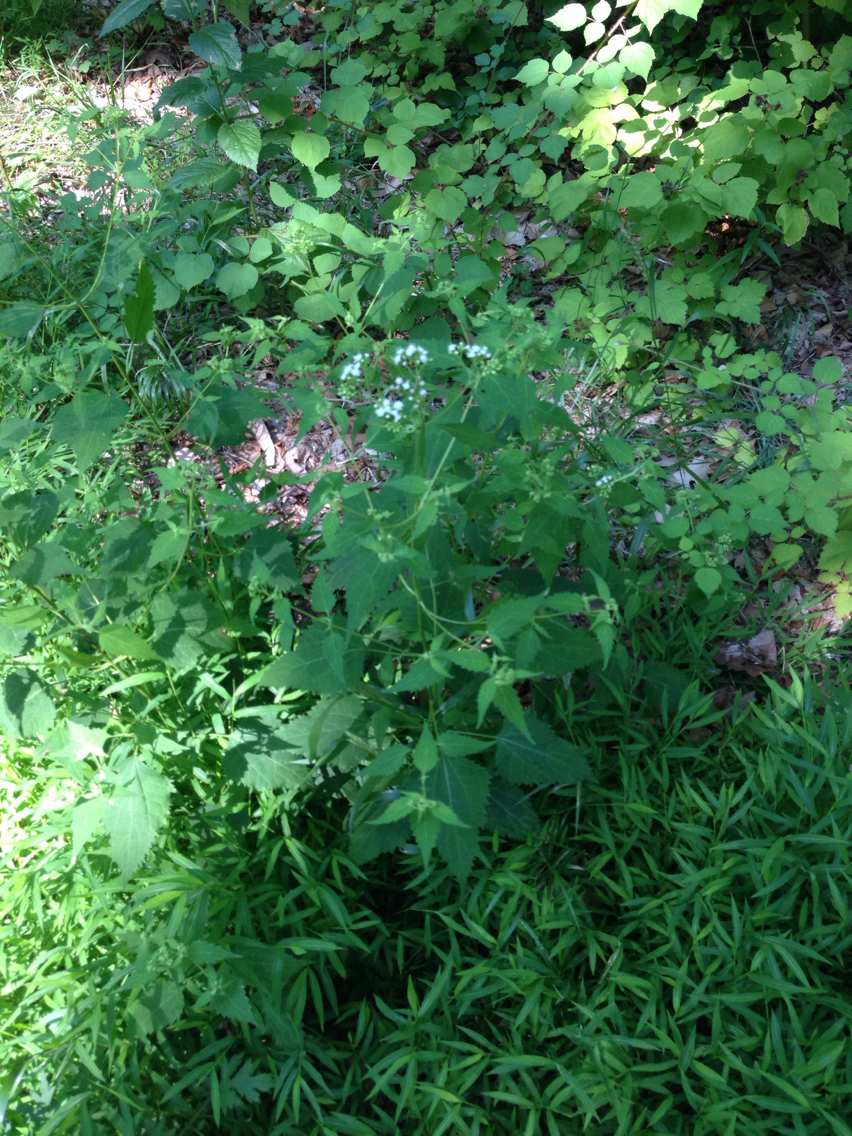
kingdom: Plantae
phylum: Tracheophyta
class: Magnoliopsida
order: Asterales
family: Asteraceae
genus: Ageratina
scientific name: Ageratina altissima
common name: White snakeroot
